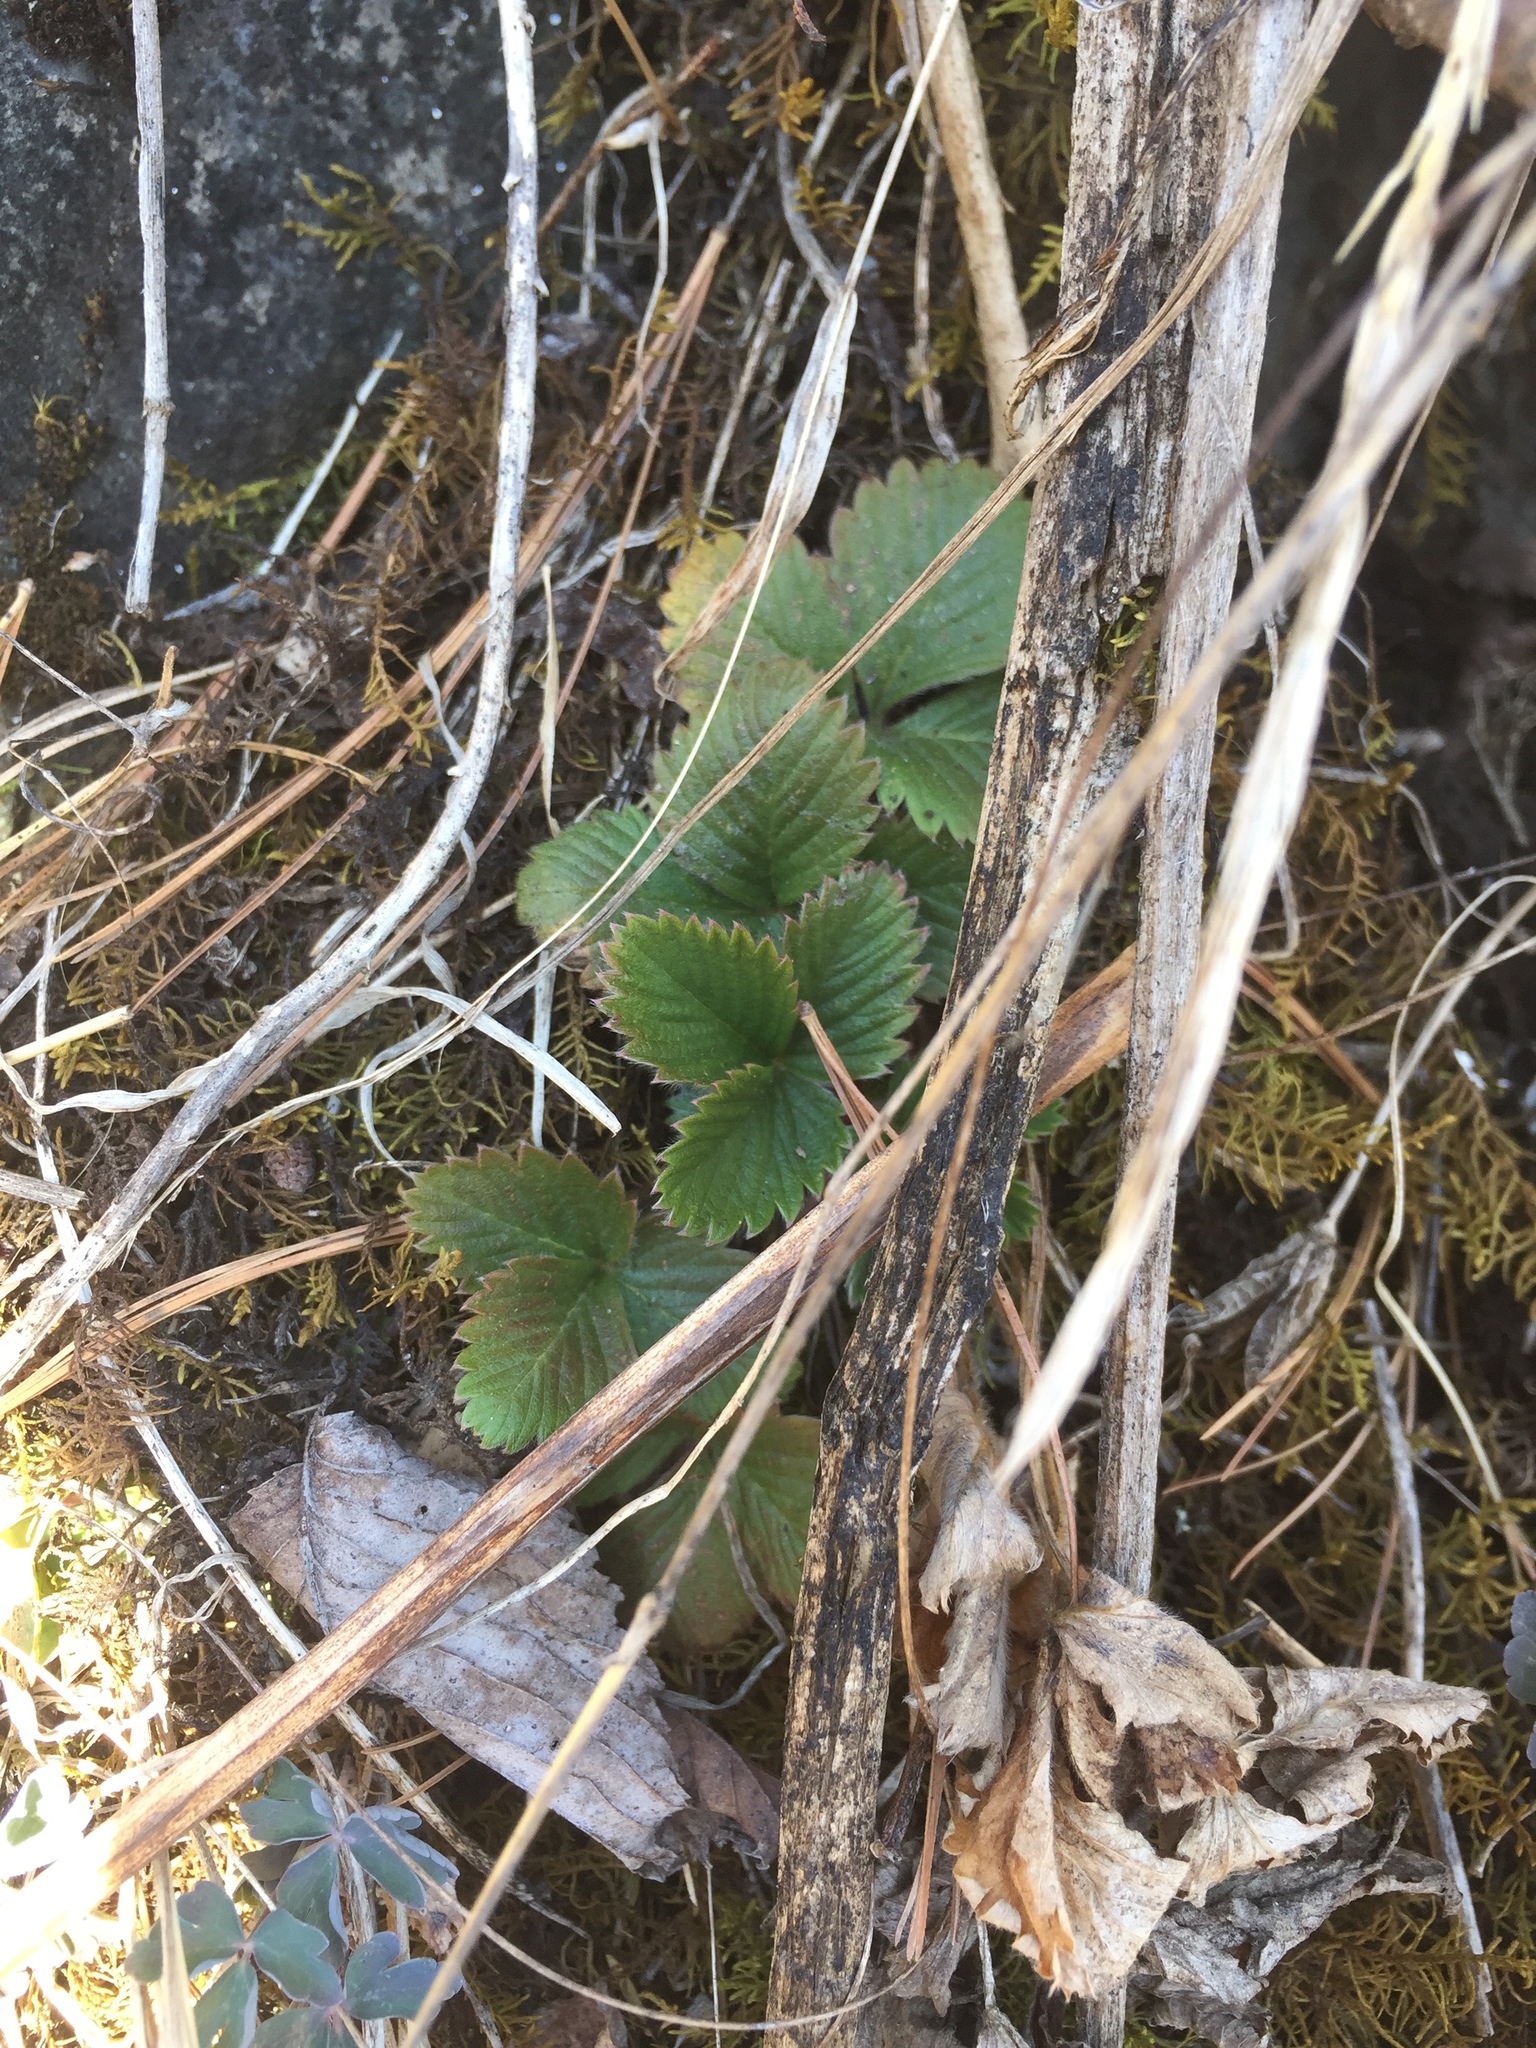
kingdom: Plantae
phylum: Tracheophyta
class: Magnoliopsida
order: Rosales
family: Rosaceae
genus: Fragaria
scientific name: Fragaria vesca
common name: Wild strawberry
